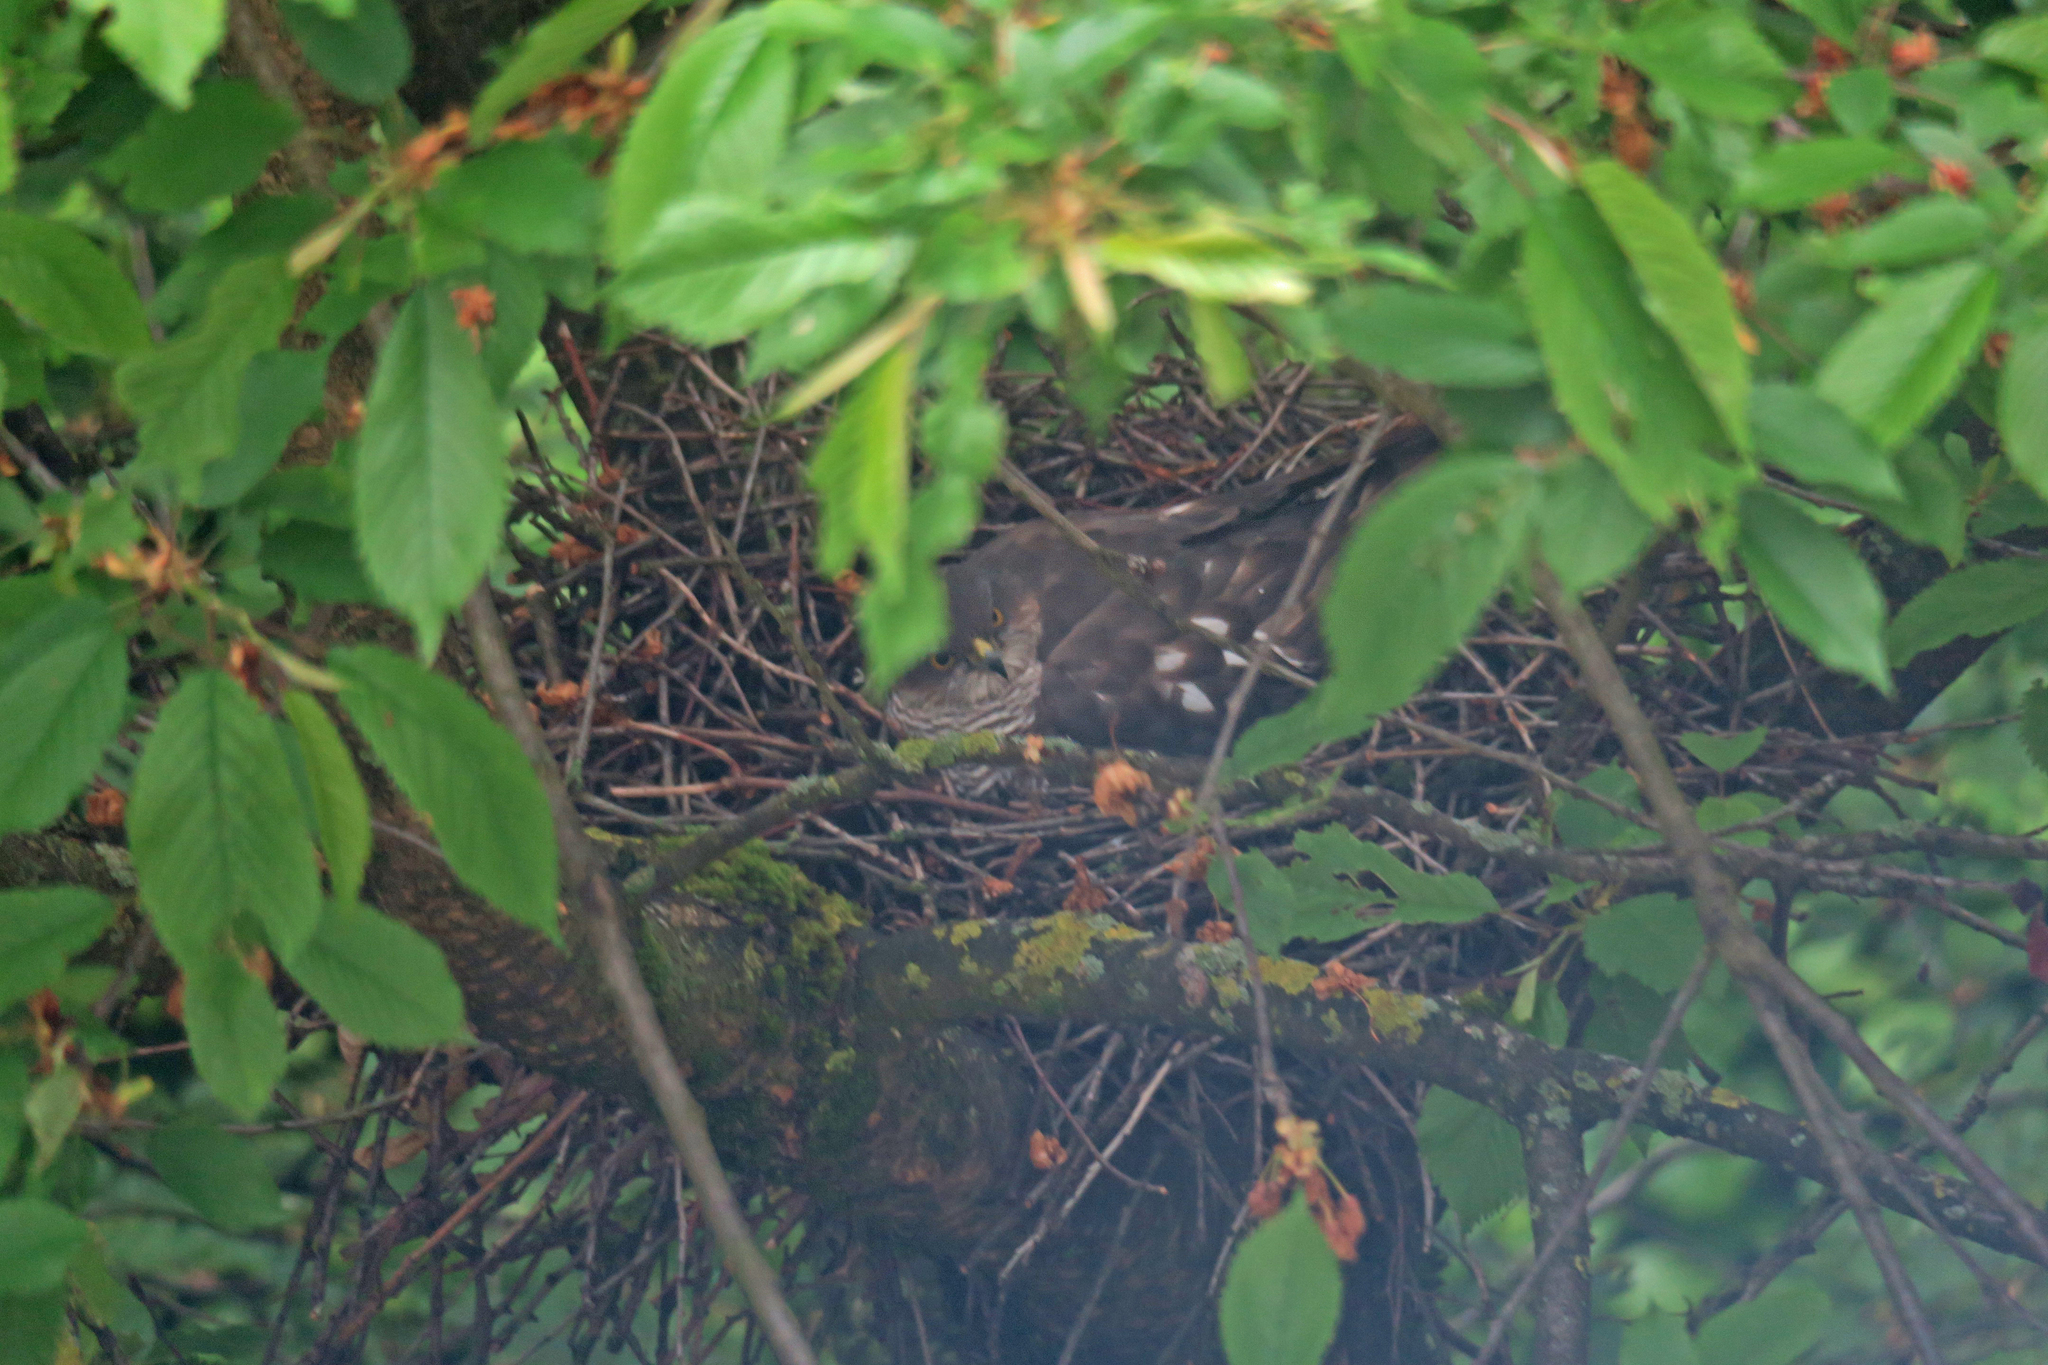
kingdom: Animalia
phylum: Chordata
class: Aves
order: Accipitriformes
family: Accipitridae
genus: Accipiter
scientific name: Accipiter nisus
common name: Eurasian sparrowhawk
